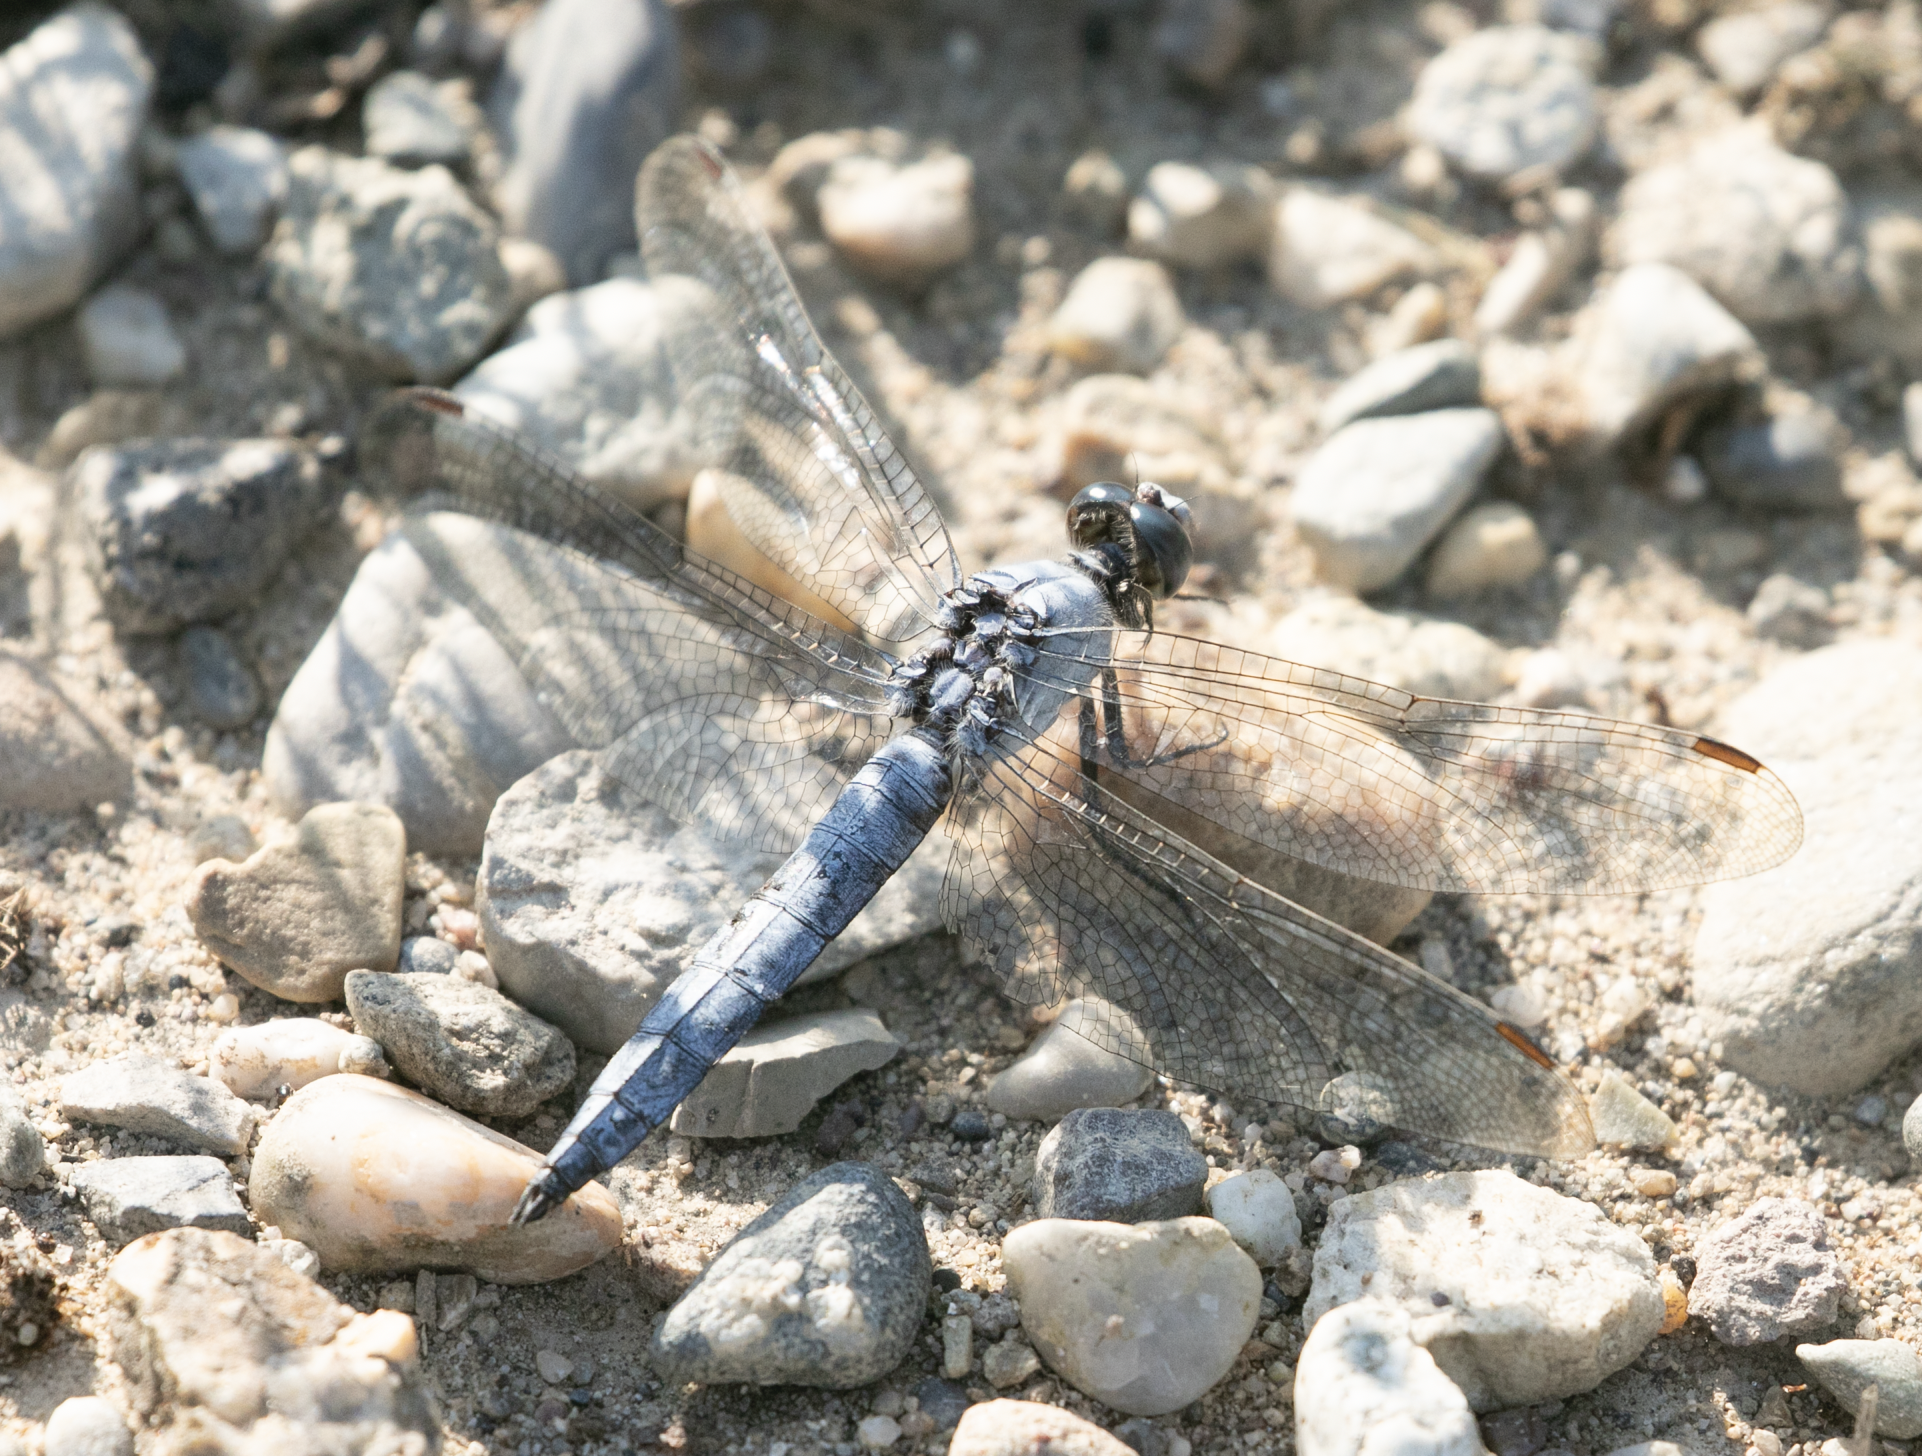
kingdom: Animalia
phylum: Arthropoda
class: Insecta
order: Odonata
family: Libellulidae
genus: Orthetrum
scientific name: Orthetrum brunneum
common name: Southern skimmer
